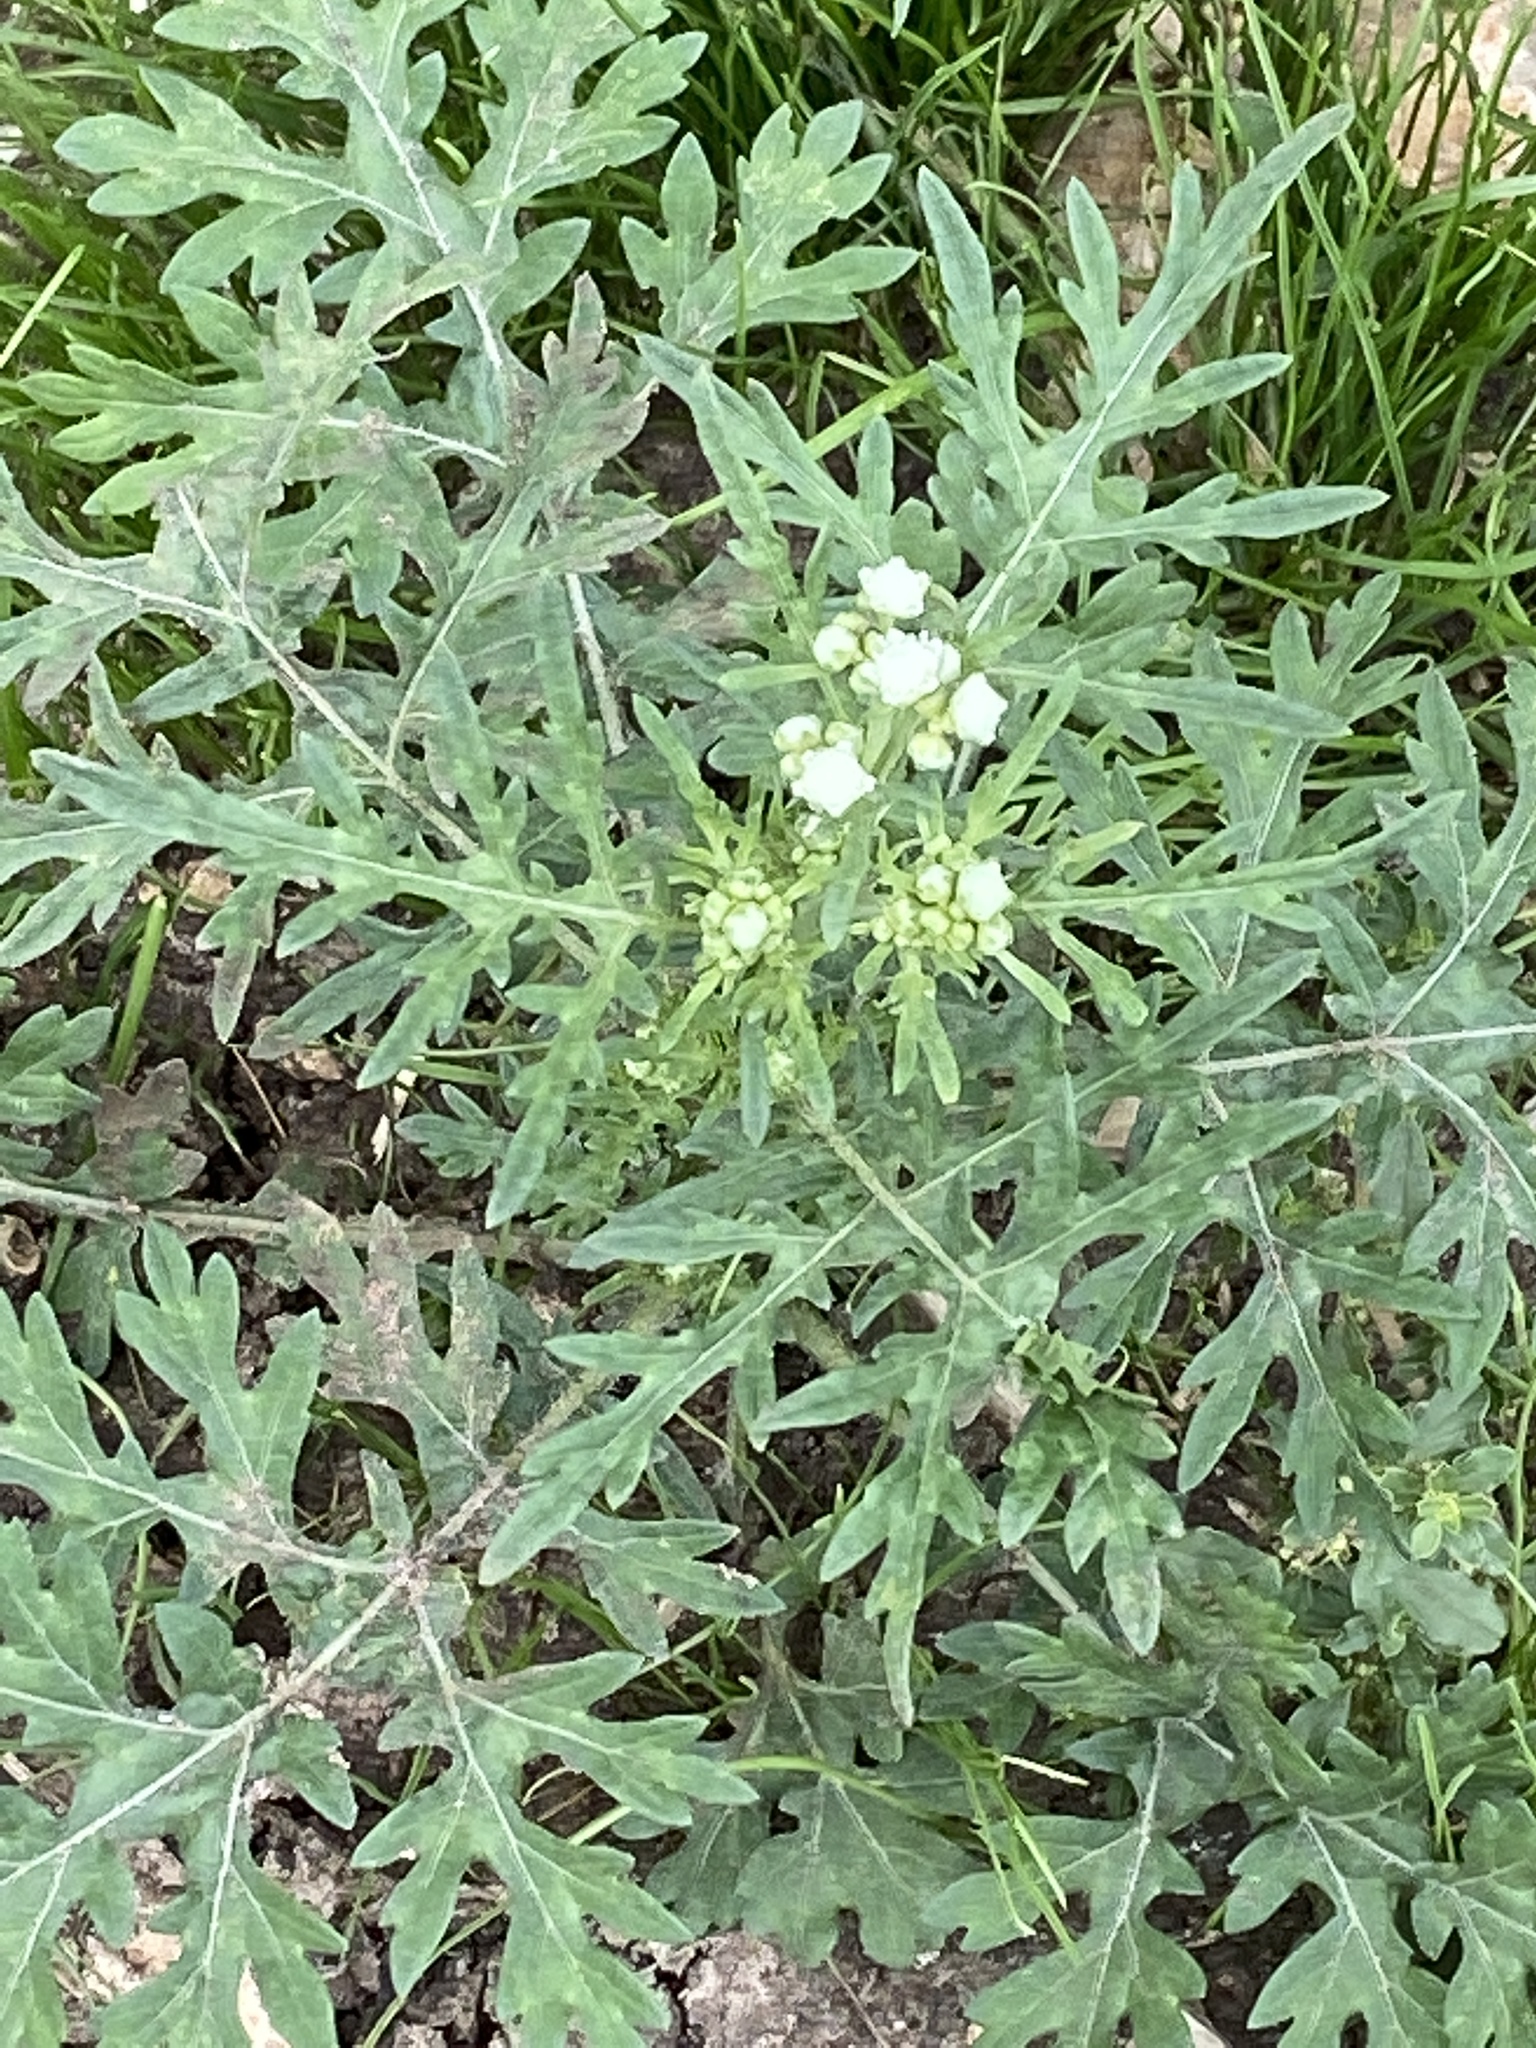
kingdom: Plantae
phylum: Tracheophyta
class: Magnoliopsida
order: Asterales
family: Asteraceae
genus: Parthenium
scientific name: Parthenium hysterophorus
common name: Santa maria feverfew
